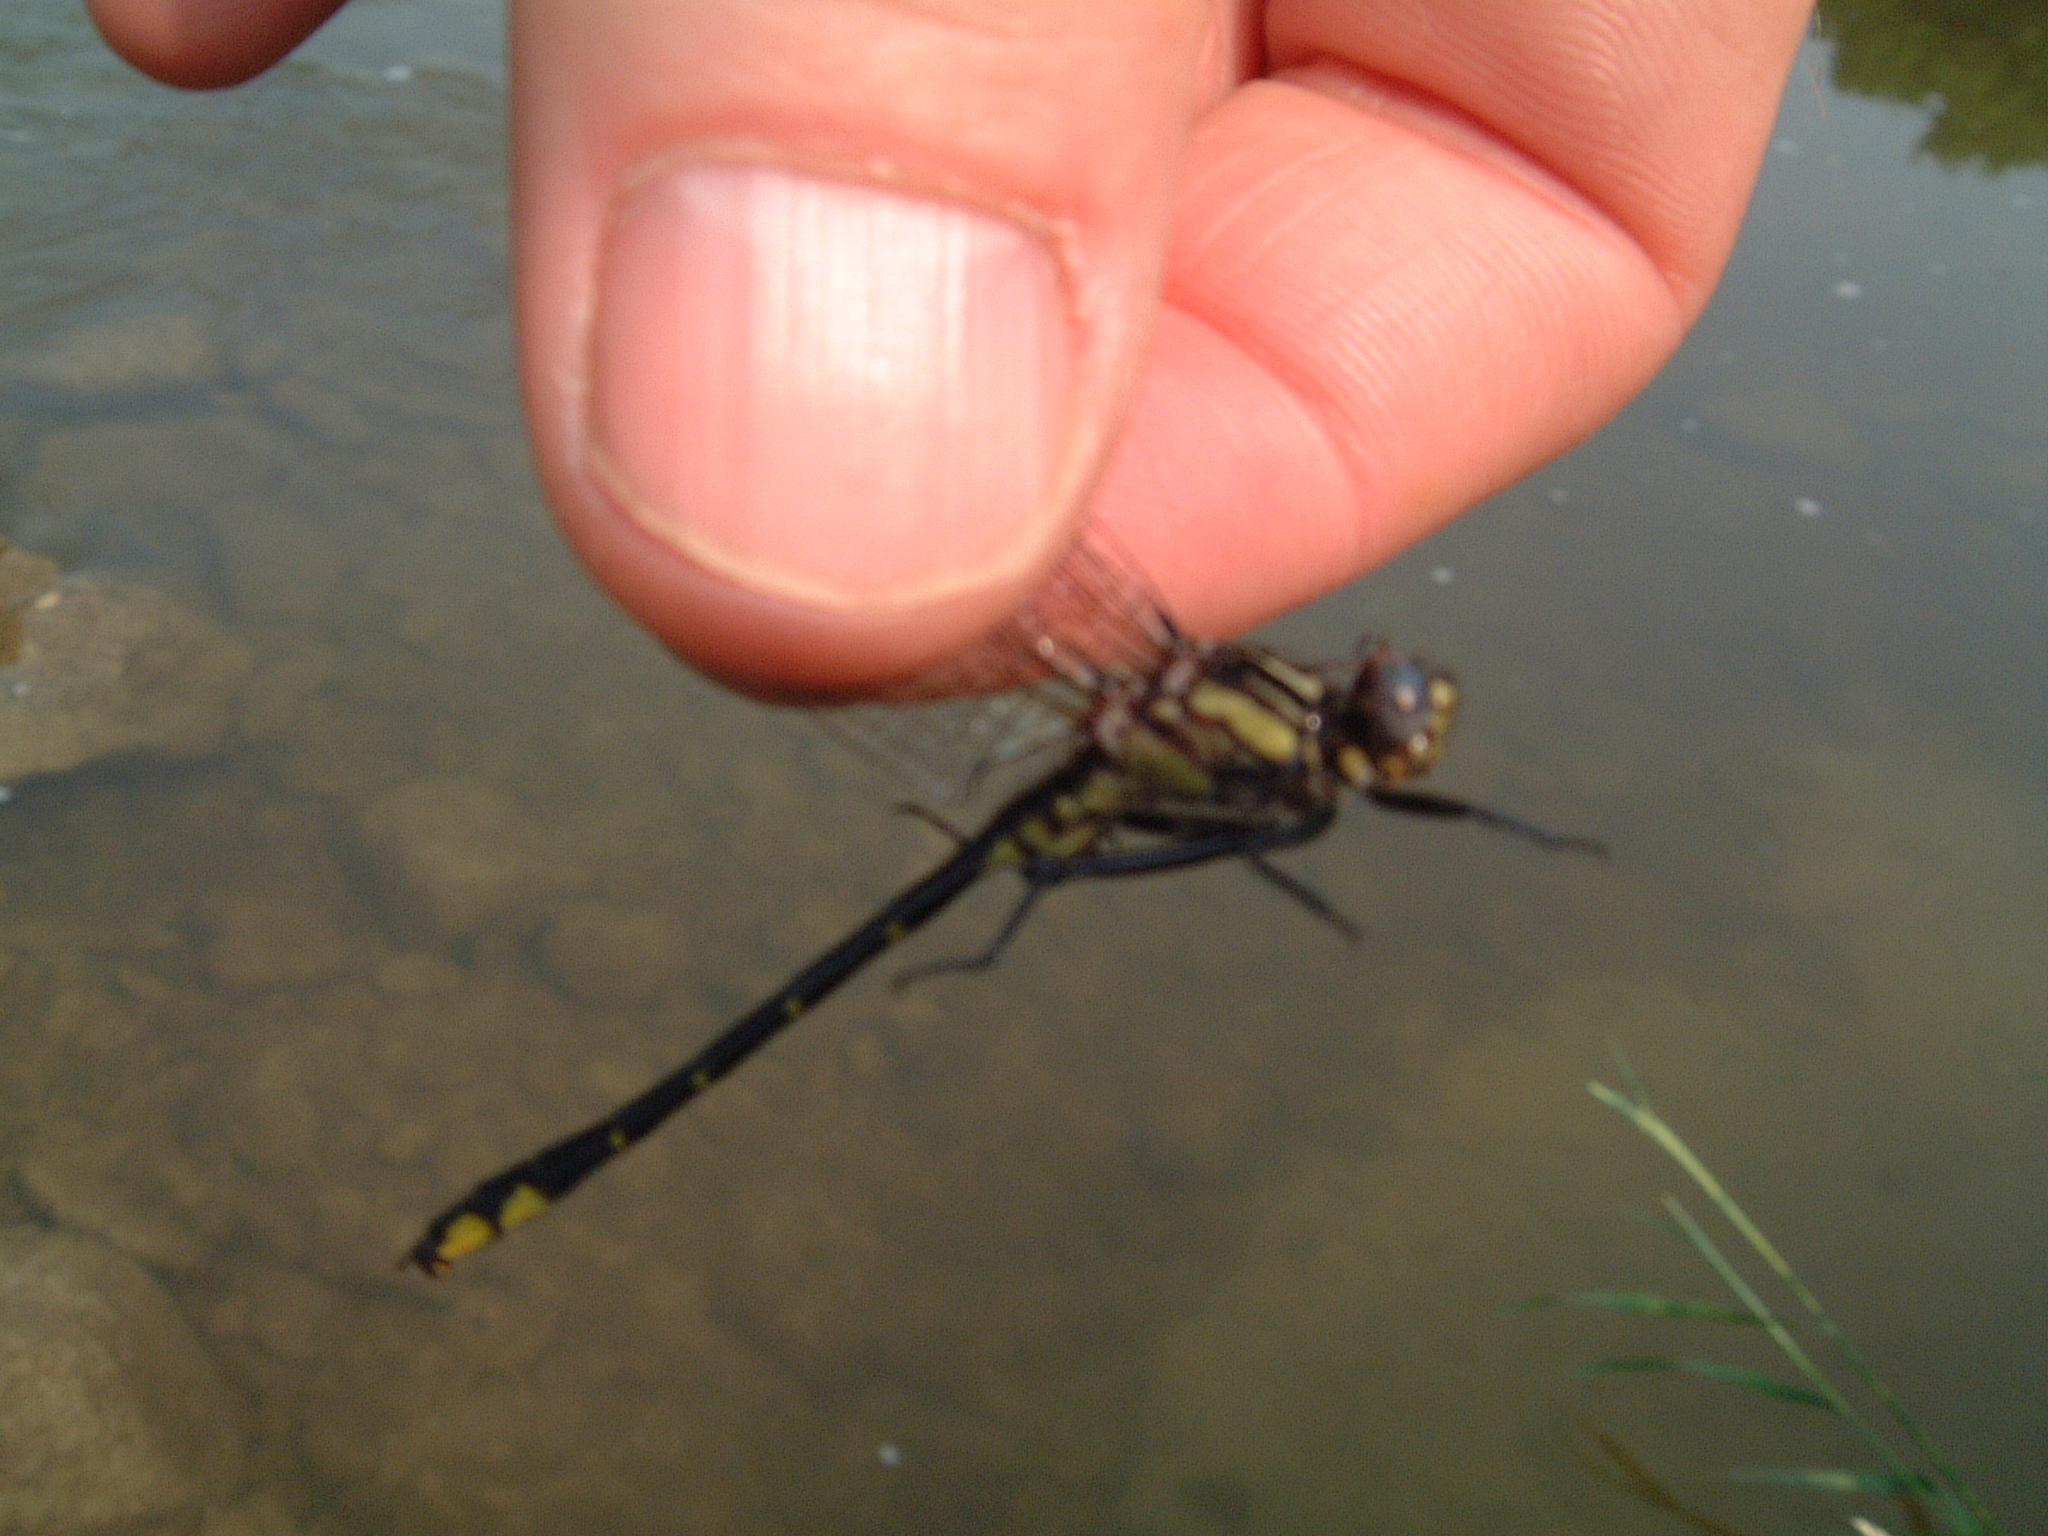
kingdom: Animalia
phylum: Arthropoda
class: Insecta
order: Odonata
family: Gomphidae
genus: Phanogomphus
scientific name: Phanogomphus quadricolor
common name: Rapids clubtail
